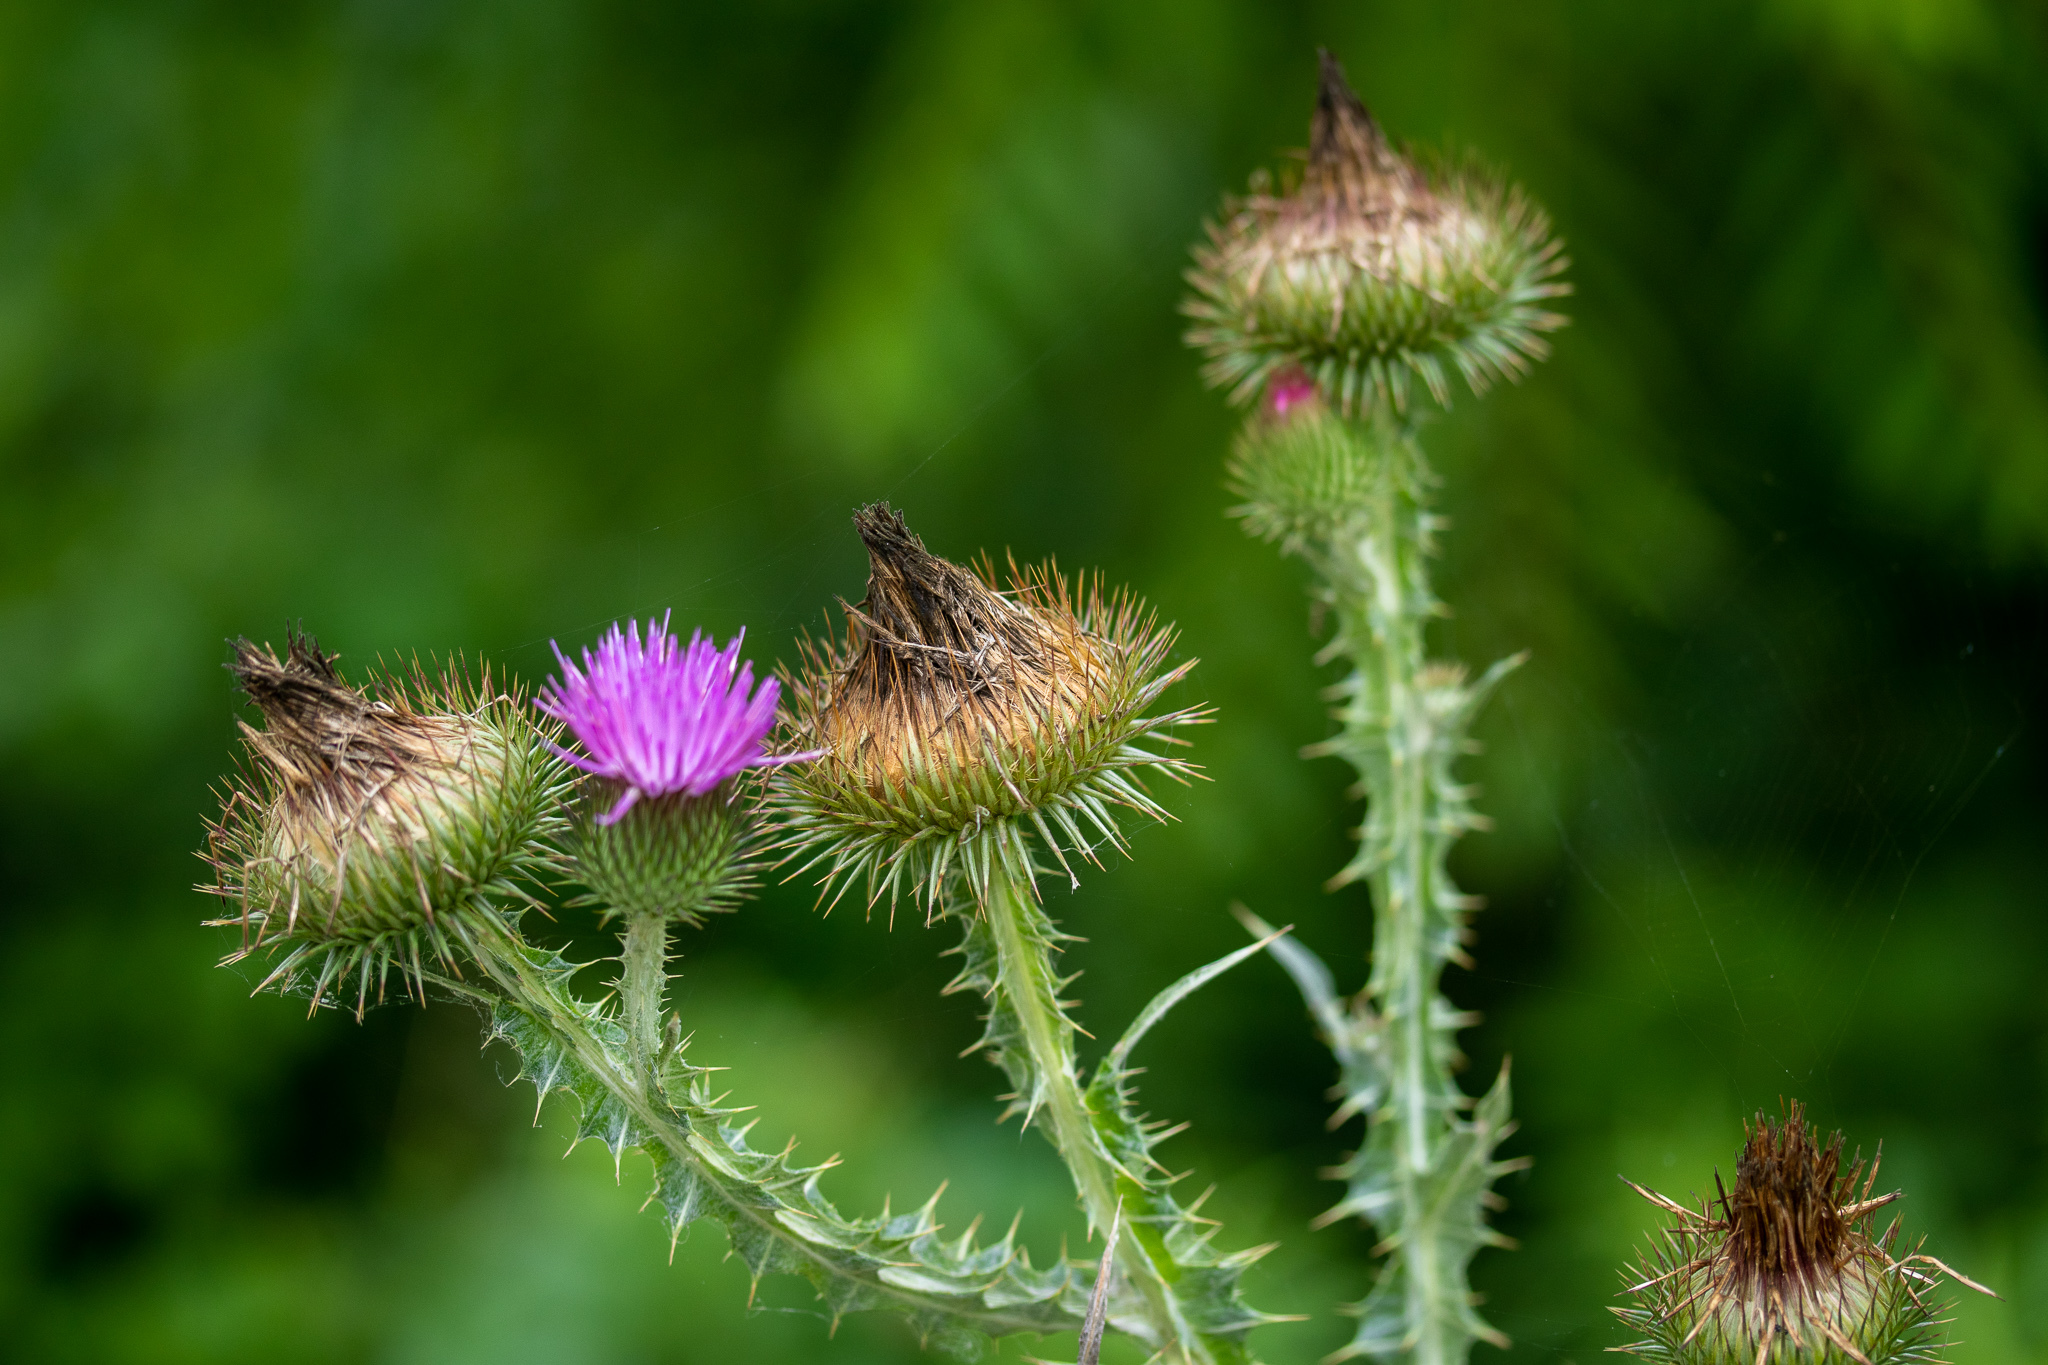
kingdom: Plantae
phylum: Tracheophyta
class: Magnoliopsida
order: Asterales
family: Asteraceae
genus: Onopordum
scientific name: Onopordum acanthium
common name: Scotch thistle
